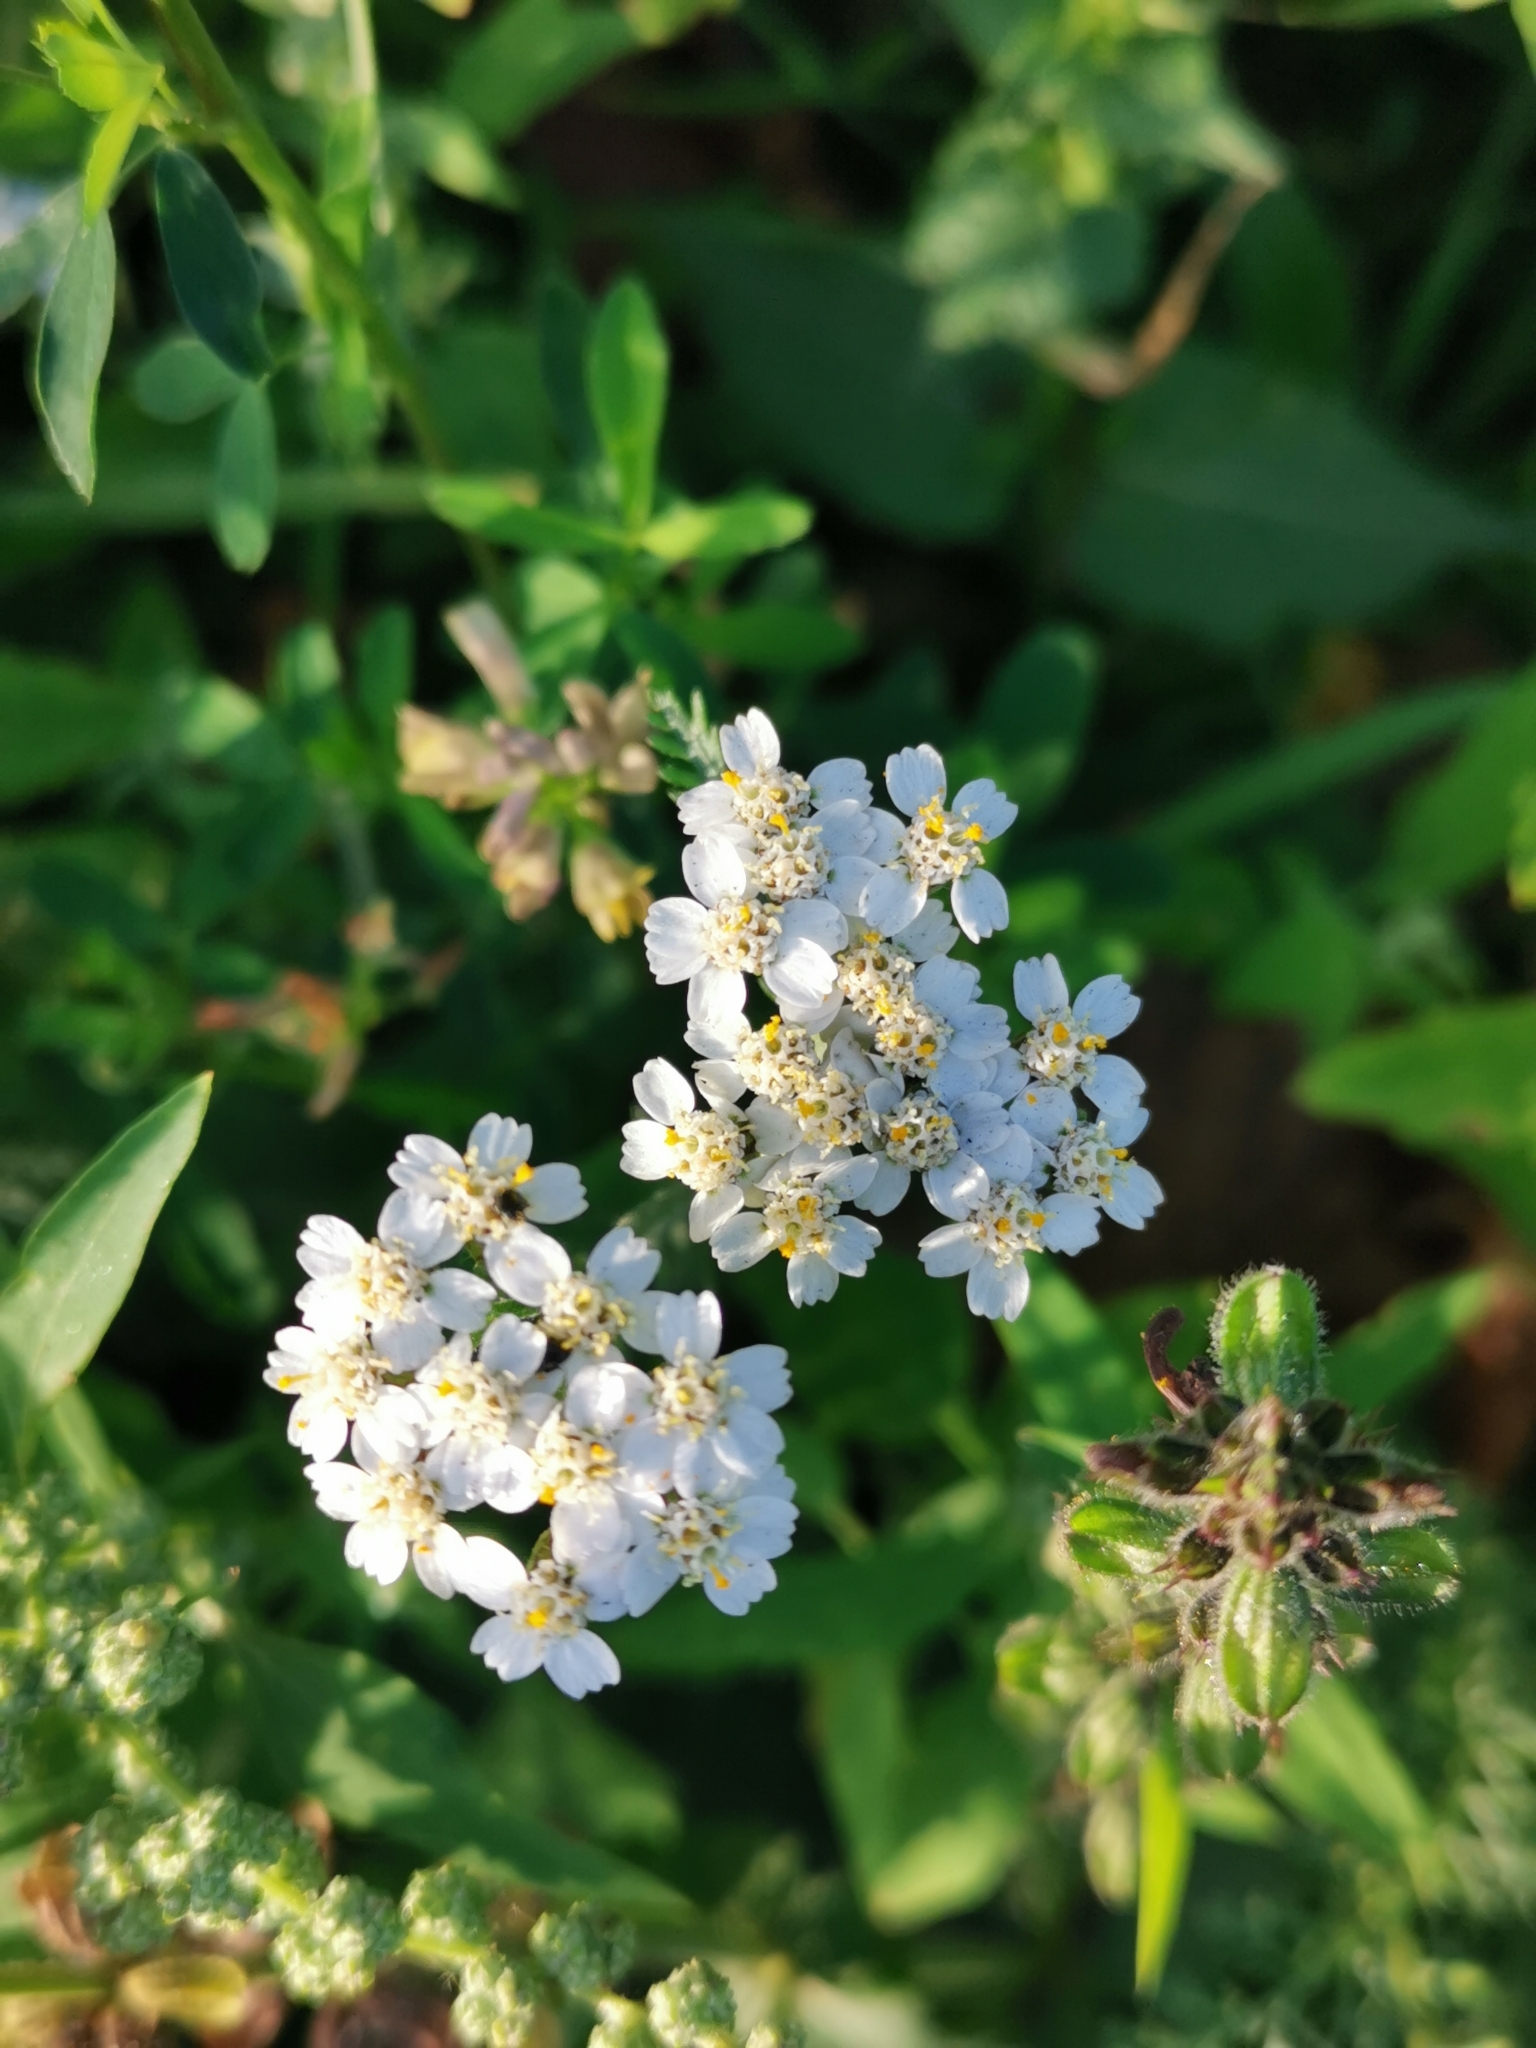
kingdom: Plantae
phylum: Tracheophyta
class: Magnoliopsida
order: Asterales
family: Asteraceae
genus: Achillea
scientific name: Achillea millefolium
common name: Yarrow
